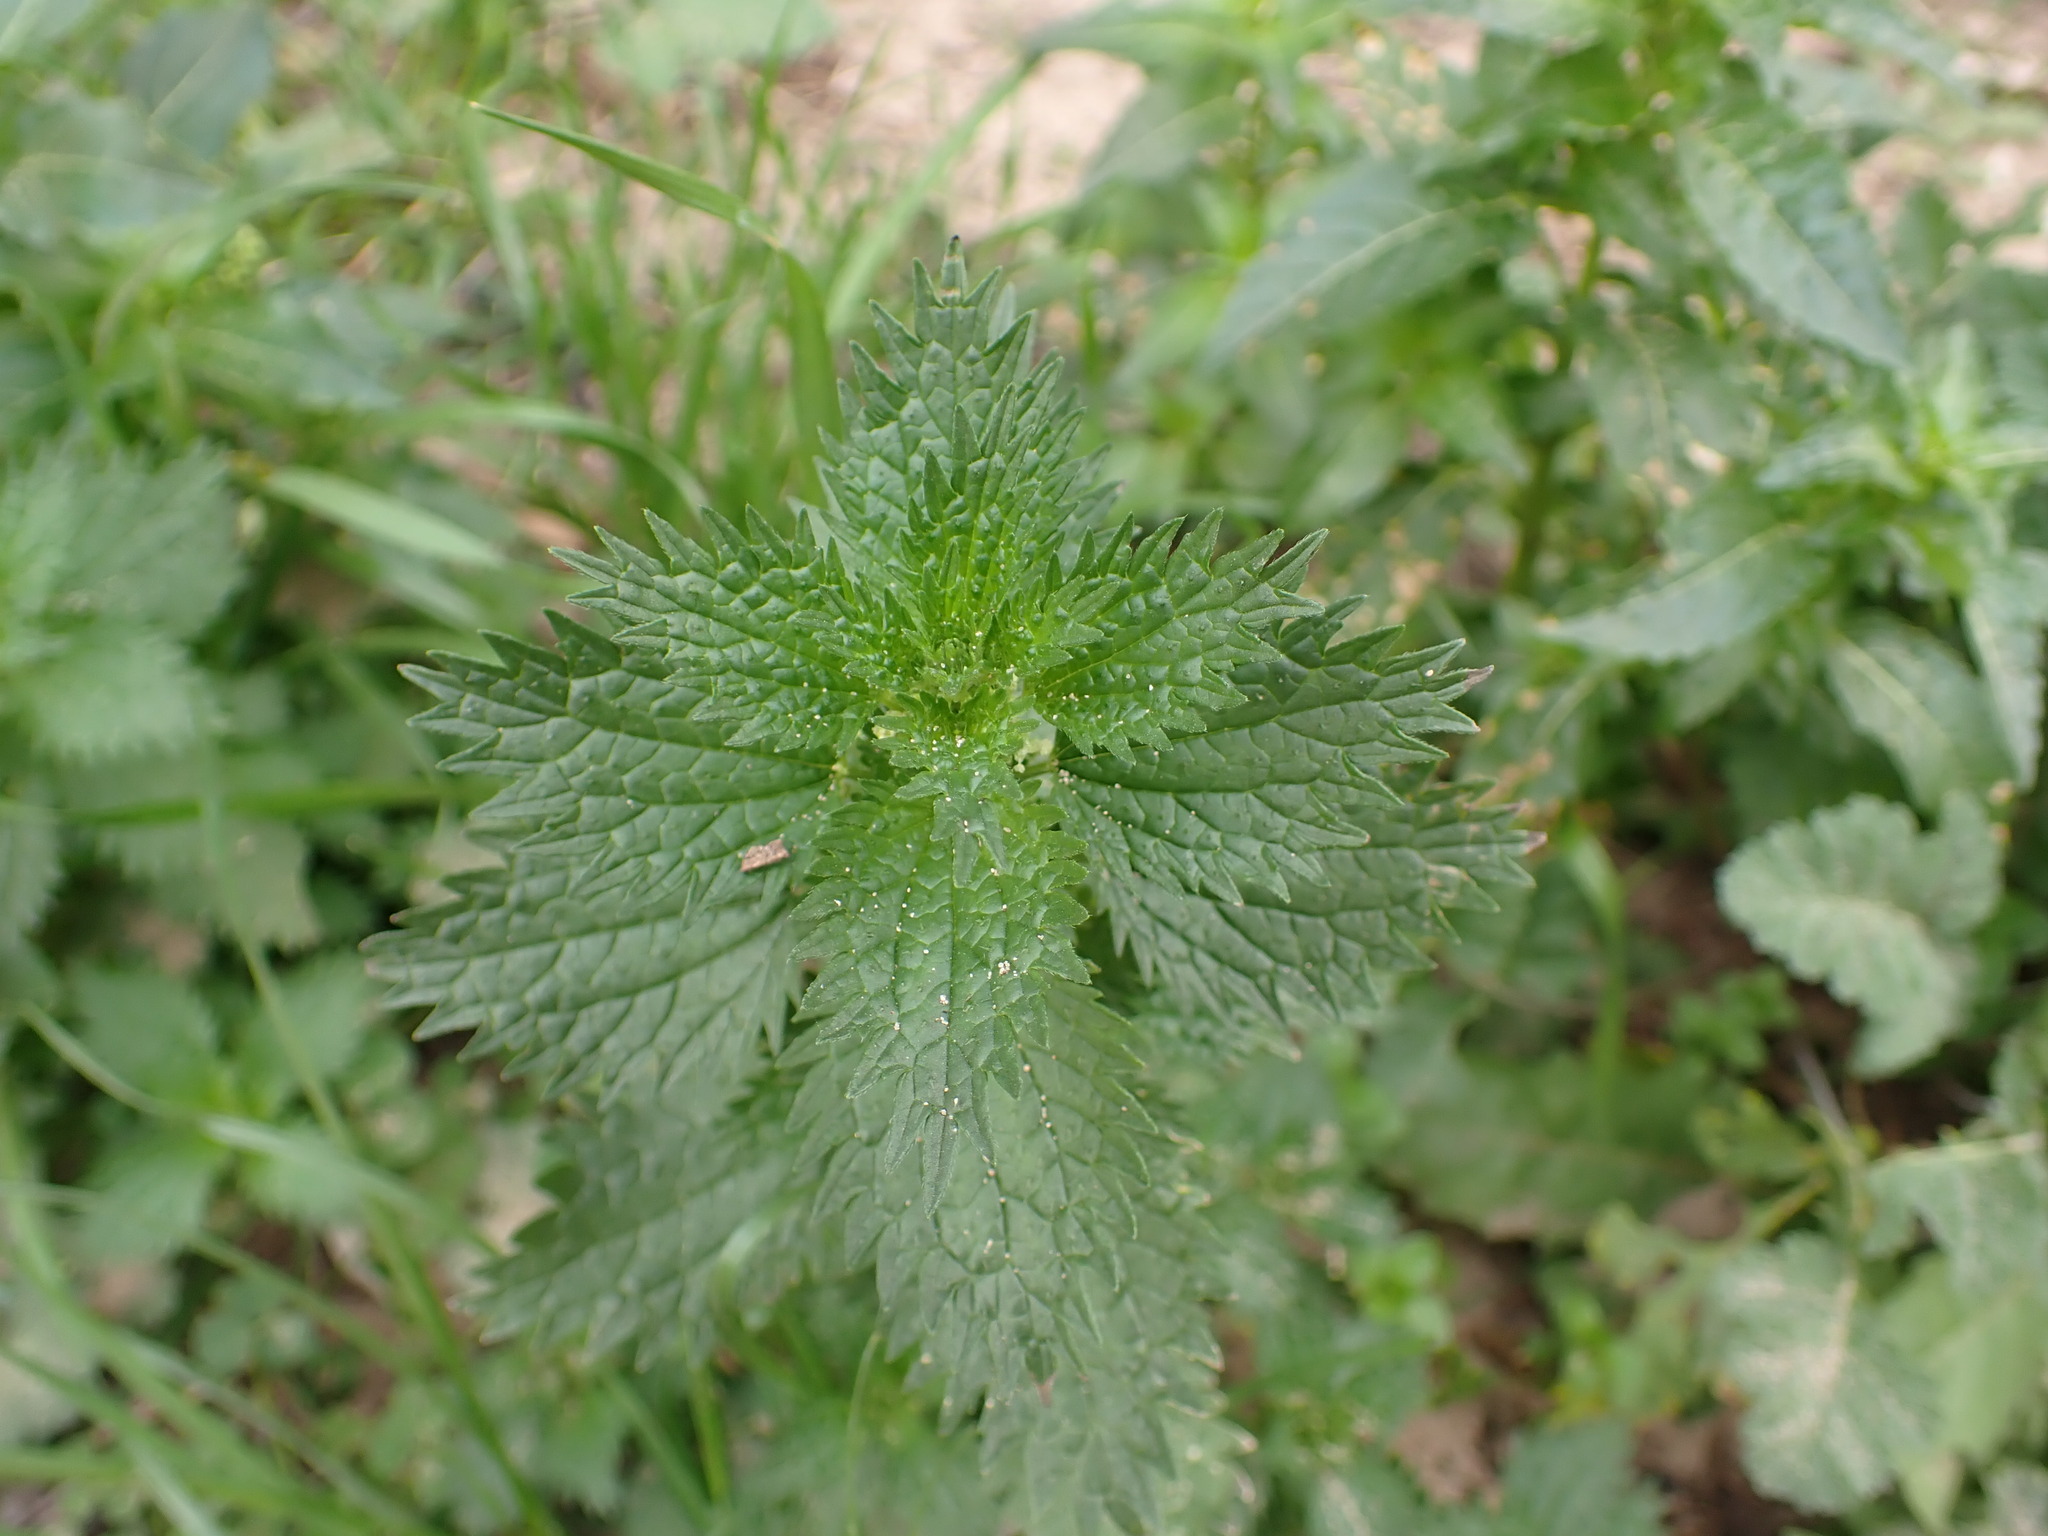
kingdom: Plantae
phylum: Tracheophyta
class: Magnoliopsida
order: Rosales
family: Urticaceae
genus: Urtica
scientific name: Urtica urens
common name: Dwarf nettle
